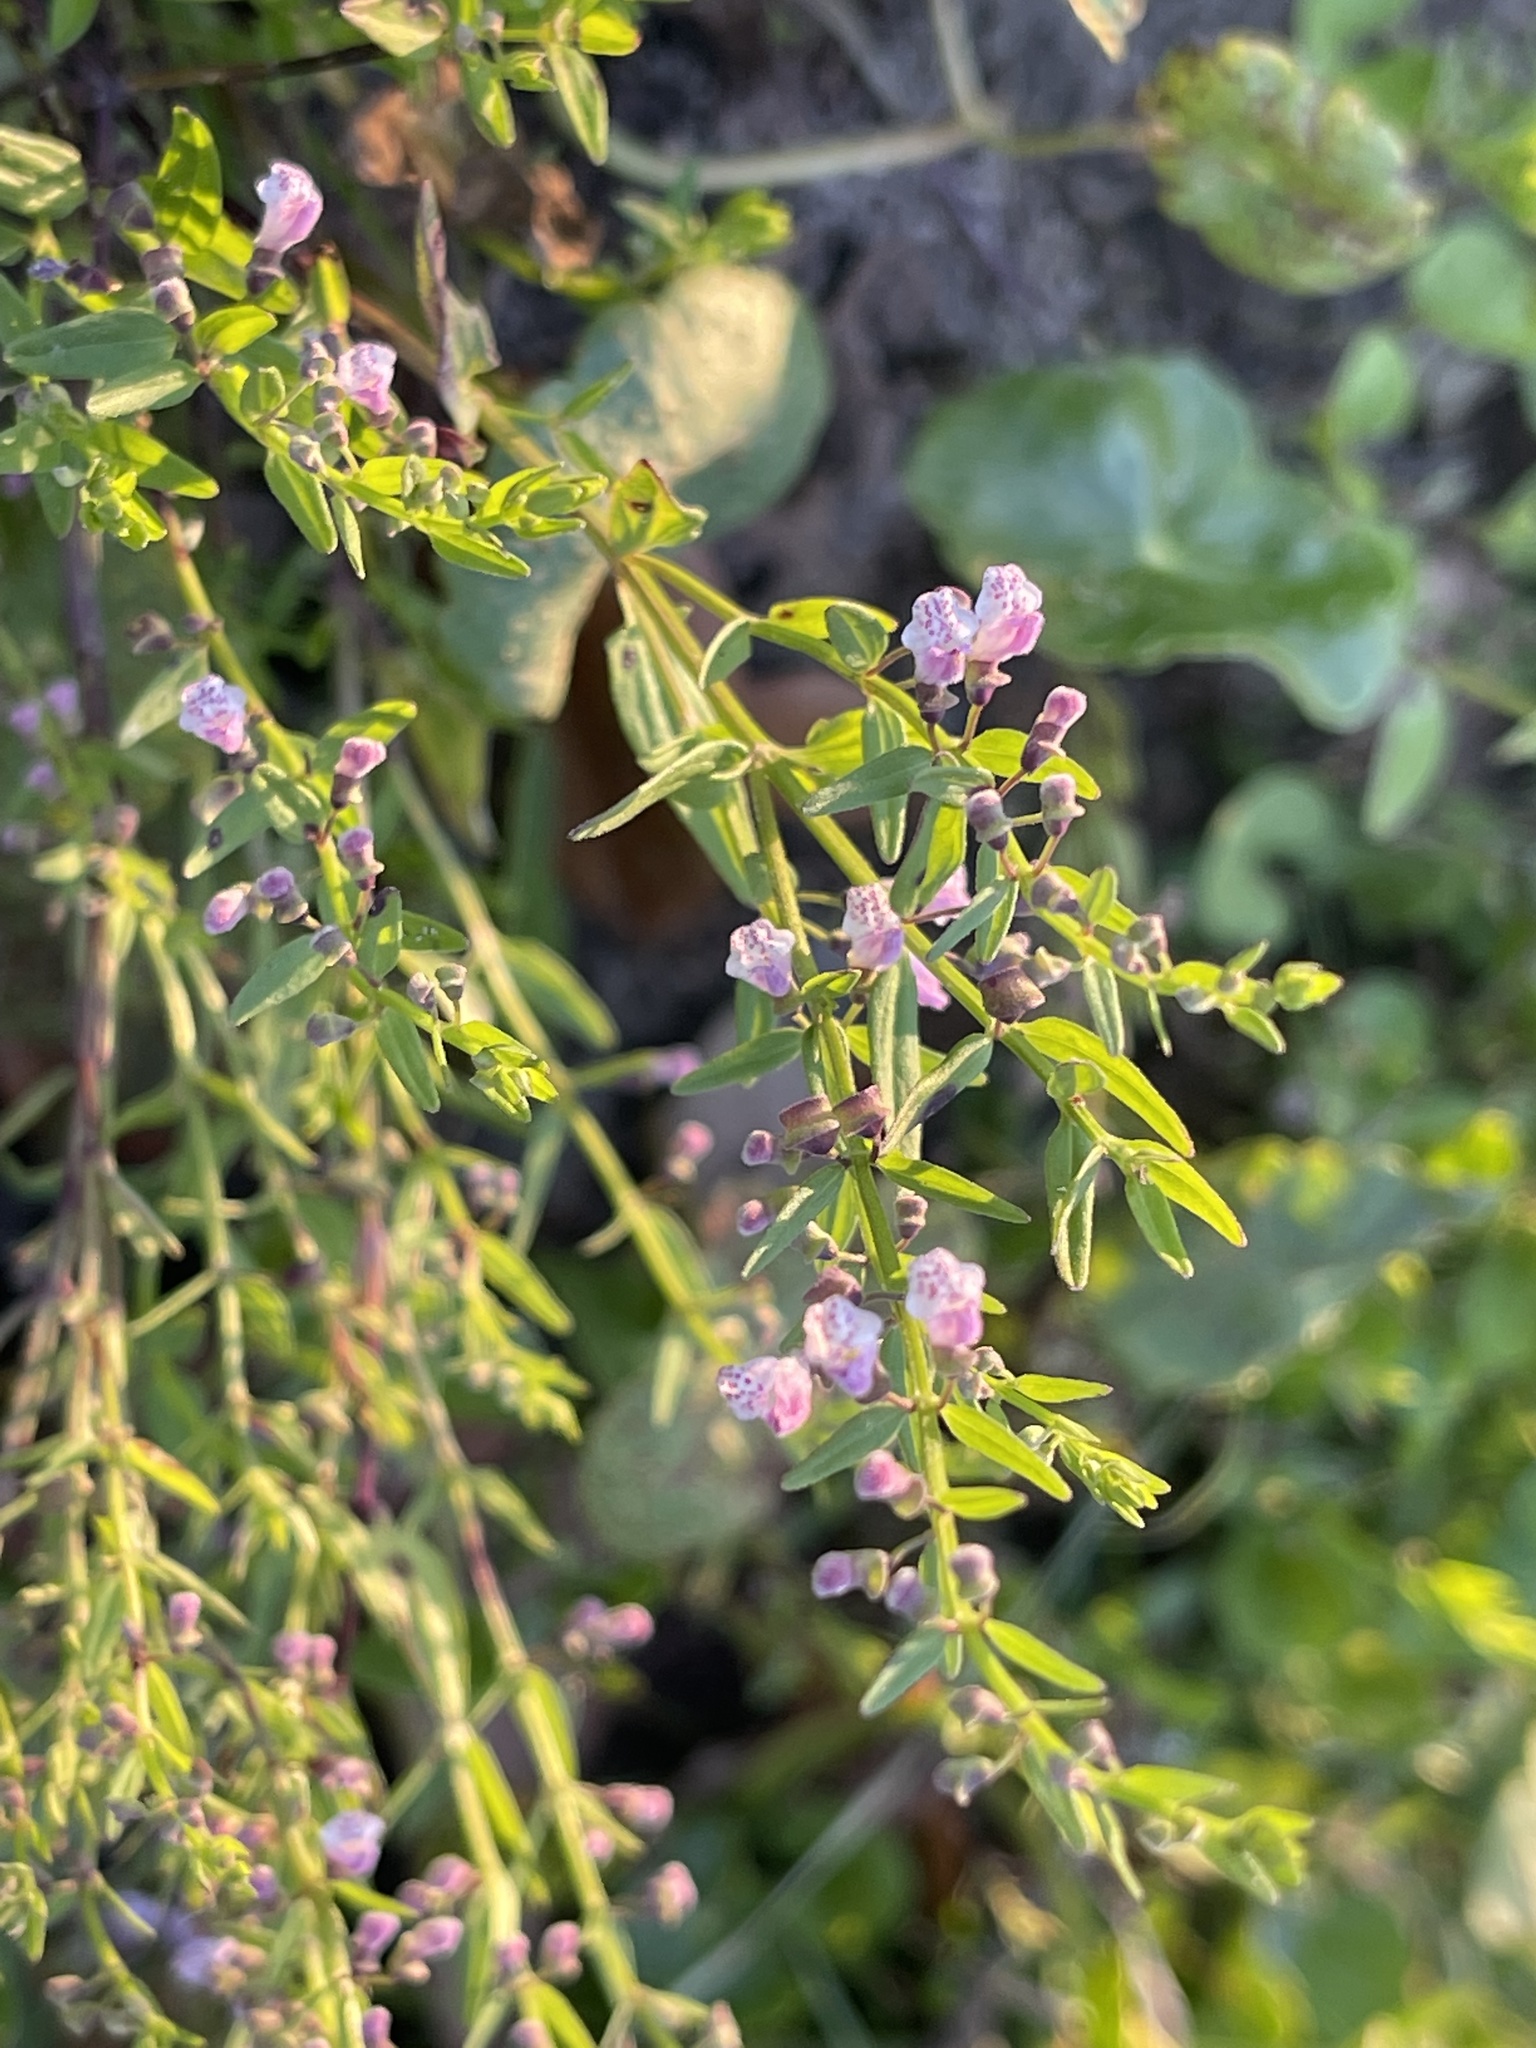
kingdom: Plantae
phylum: Tracheophyta
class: Magnoliopsida
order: Lamiales
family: Lamiaceae
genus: Scutellaria
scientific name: Scutellaria racemosa
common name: South american skullcap
